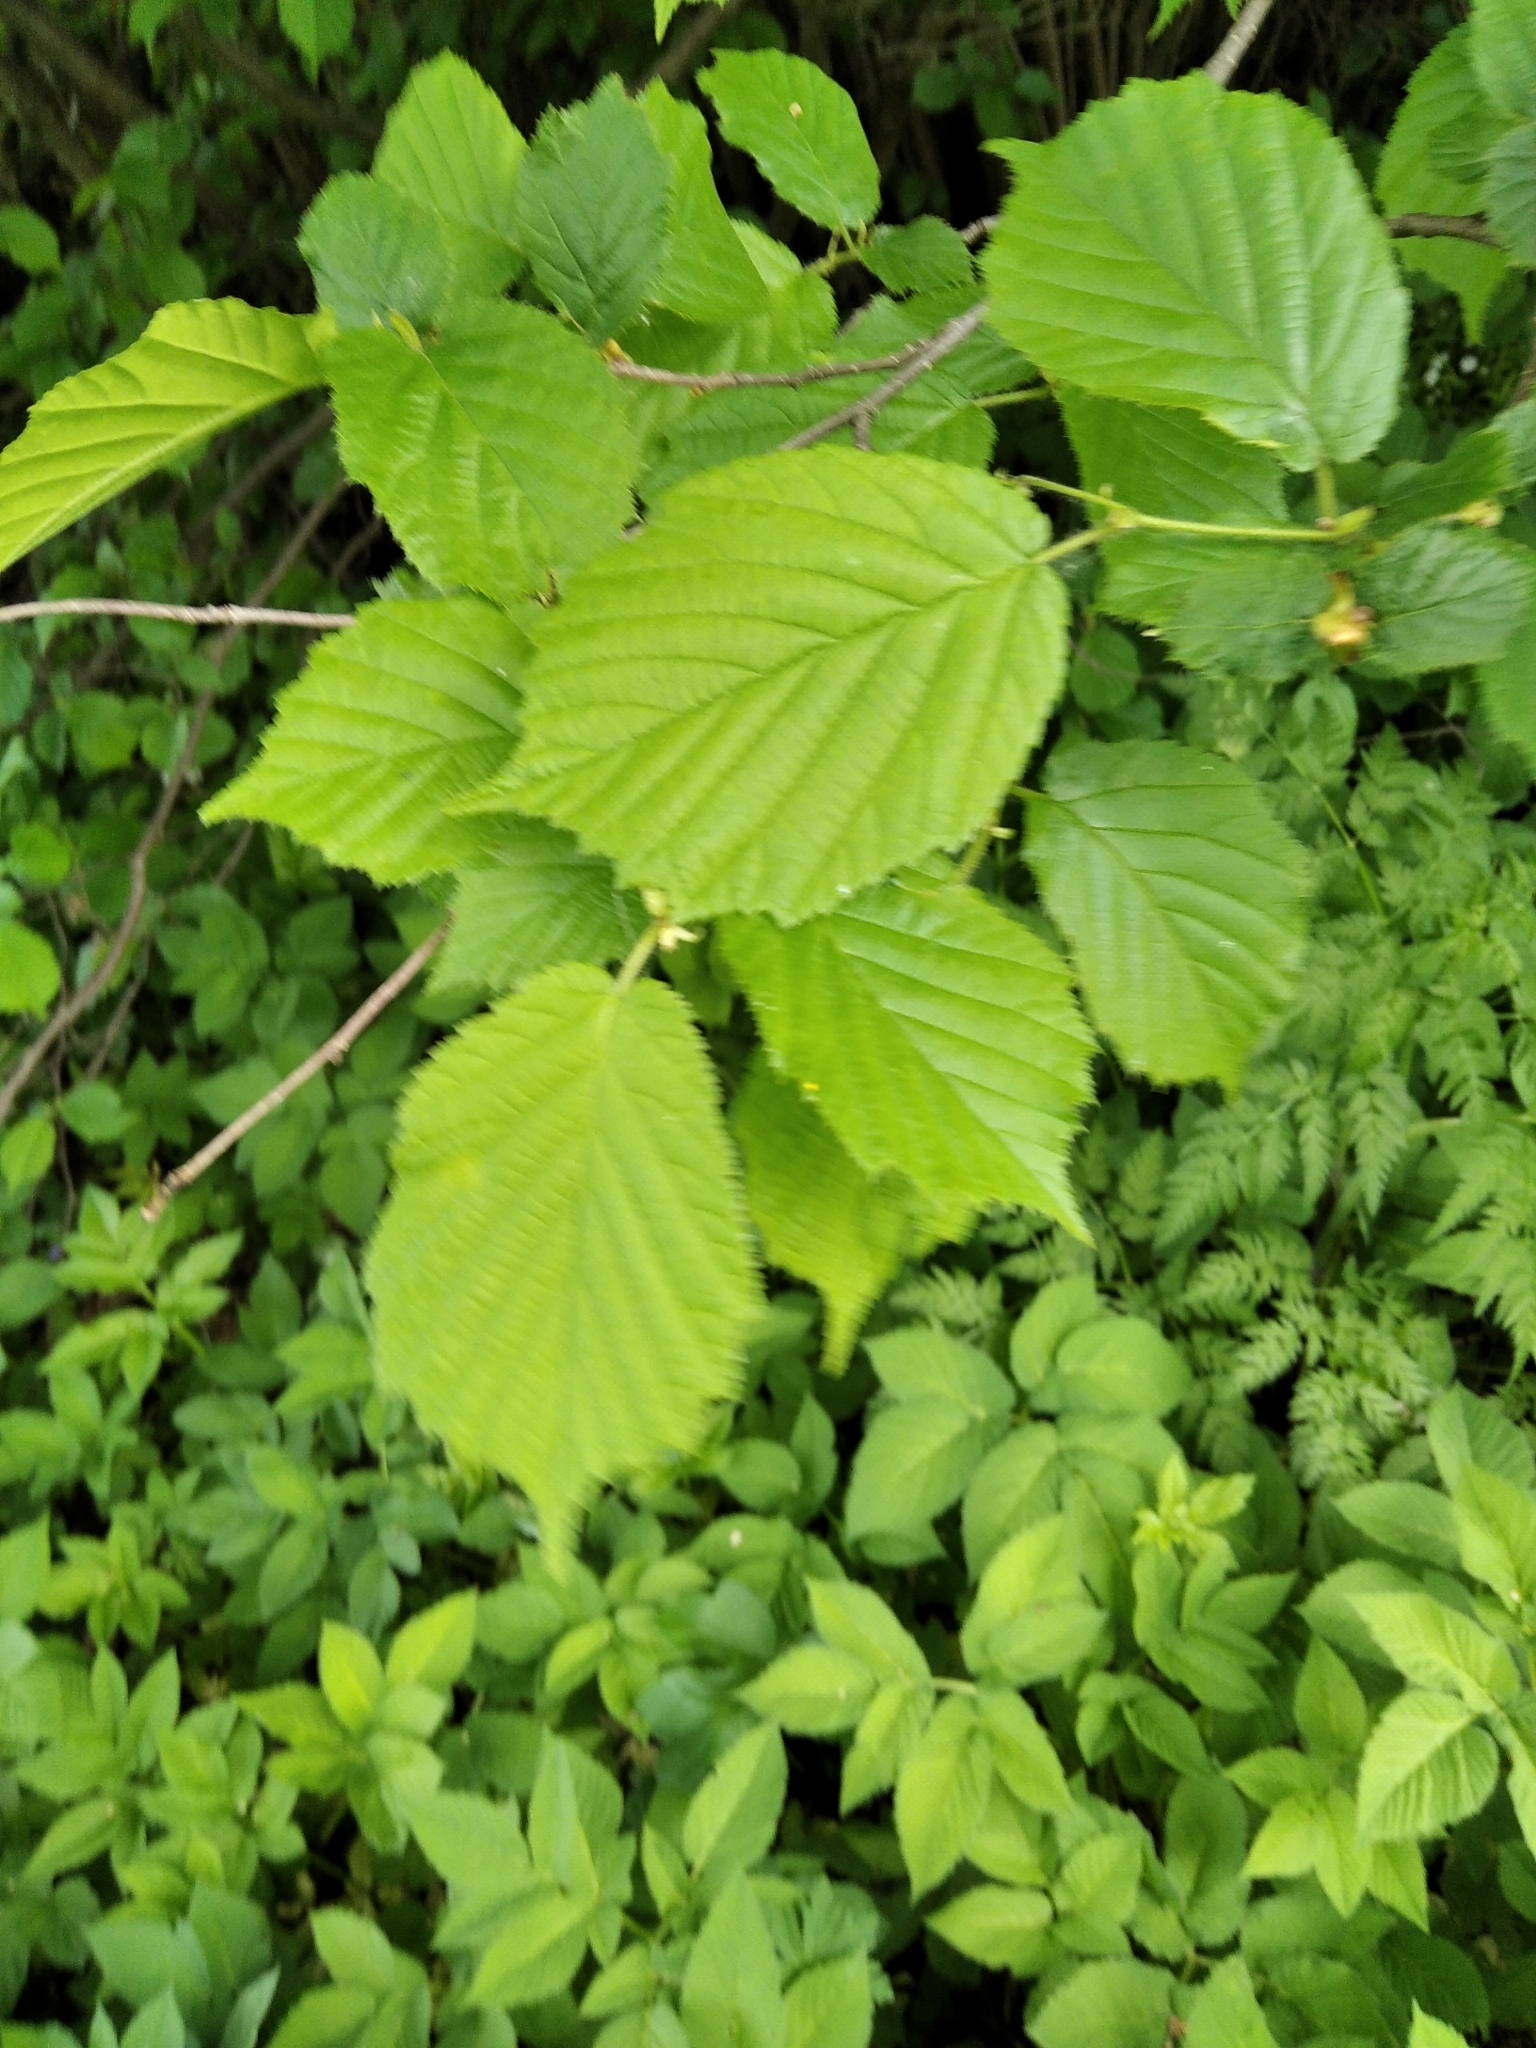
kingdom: Plantae
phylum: Tracheophyta
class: Magnoliopsida
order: Fagales
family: Betulaceae
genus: Corylus
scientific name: Corylus avellana
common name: European hazel
